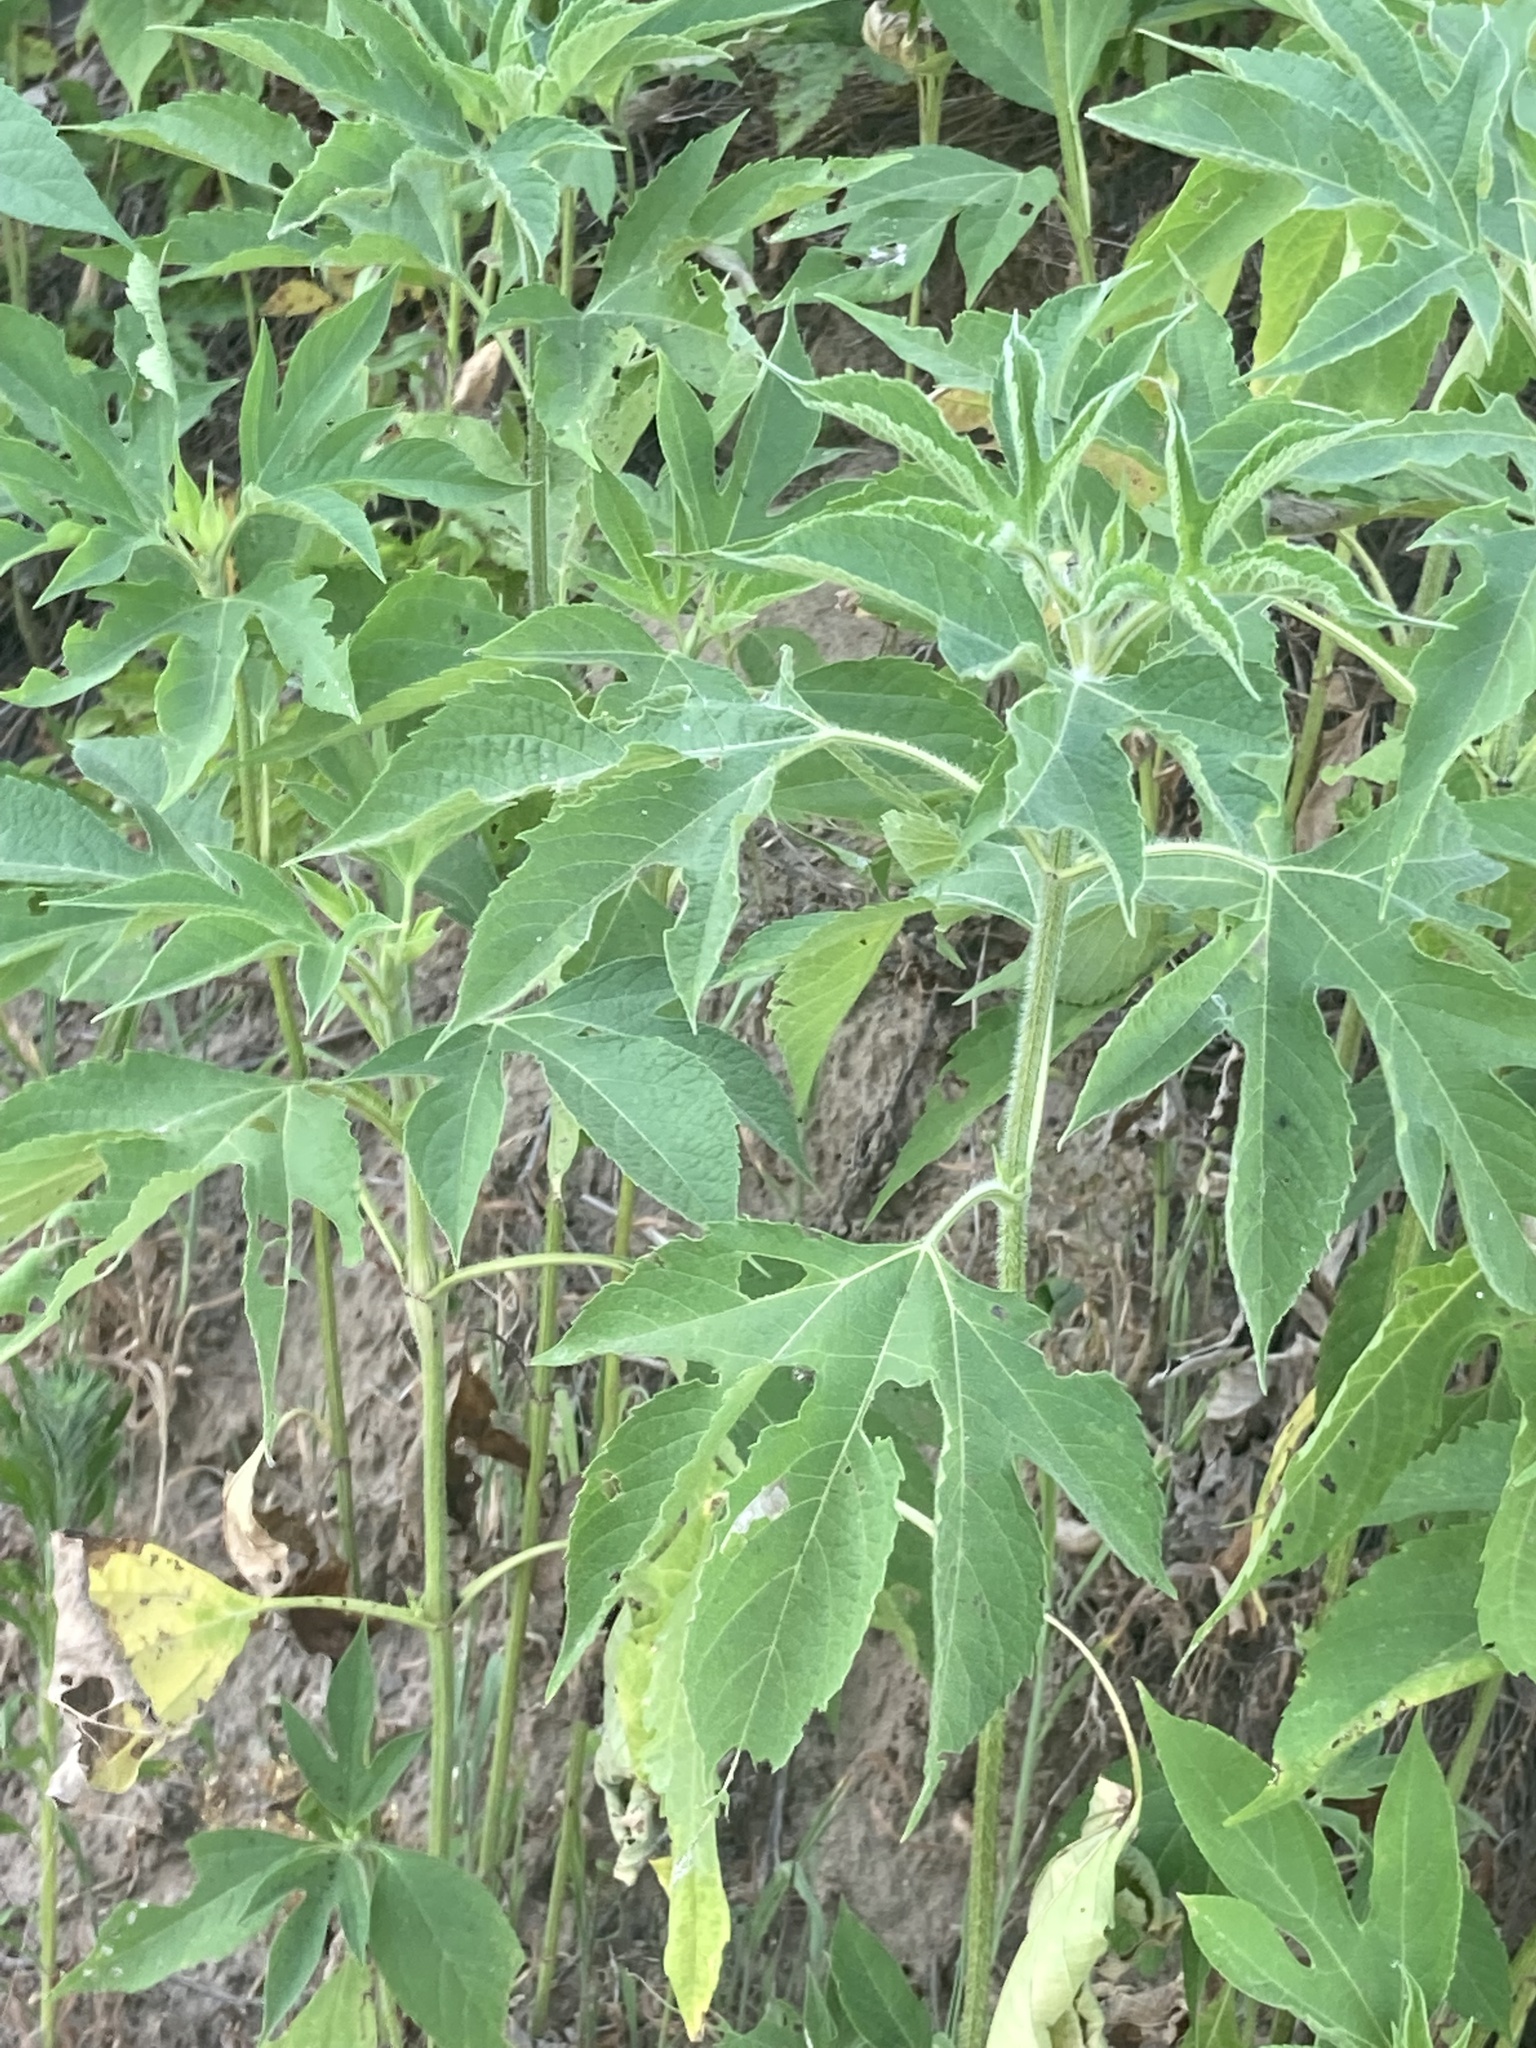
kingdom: Plantae
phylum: Tracheophyta
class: Magnoliopsida
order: Asterales
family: Asteraceae
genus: Ambrosia
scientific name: Ambrosia trifida
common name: Giant ragweed
